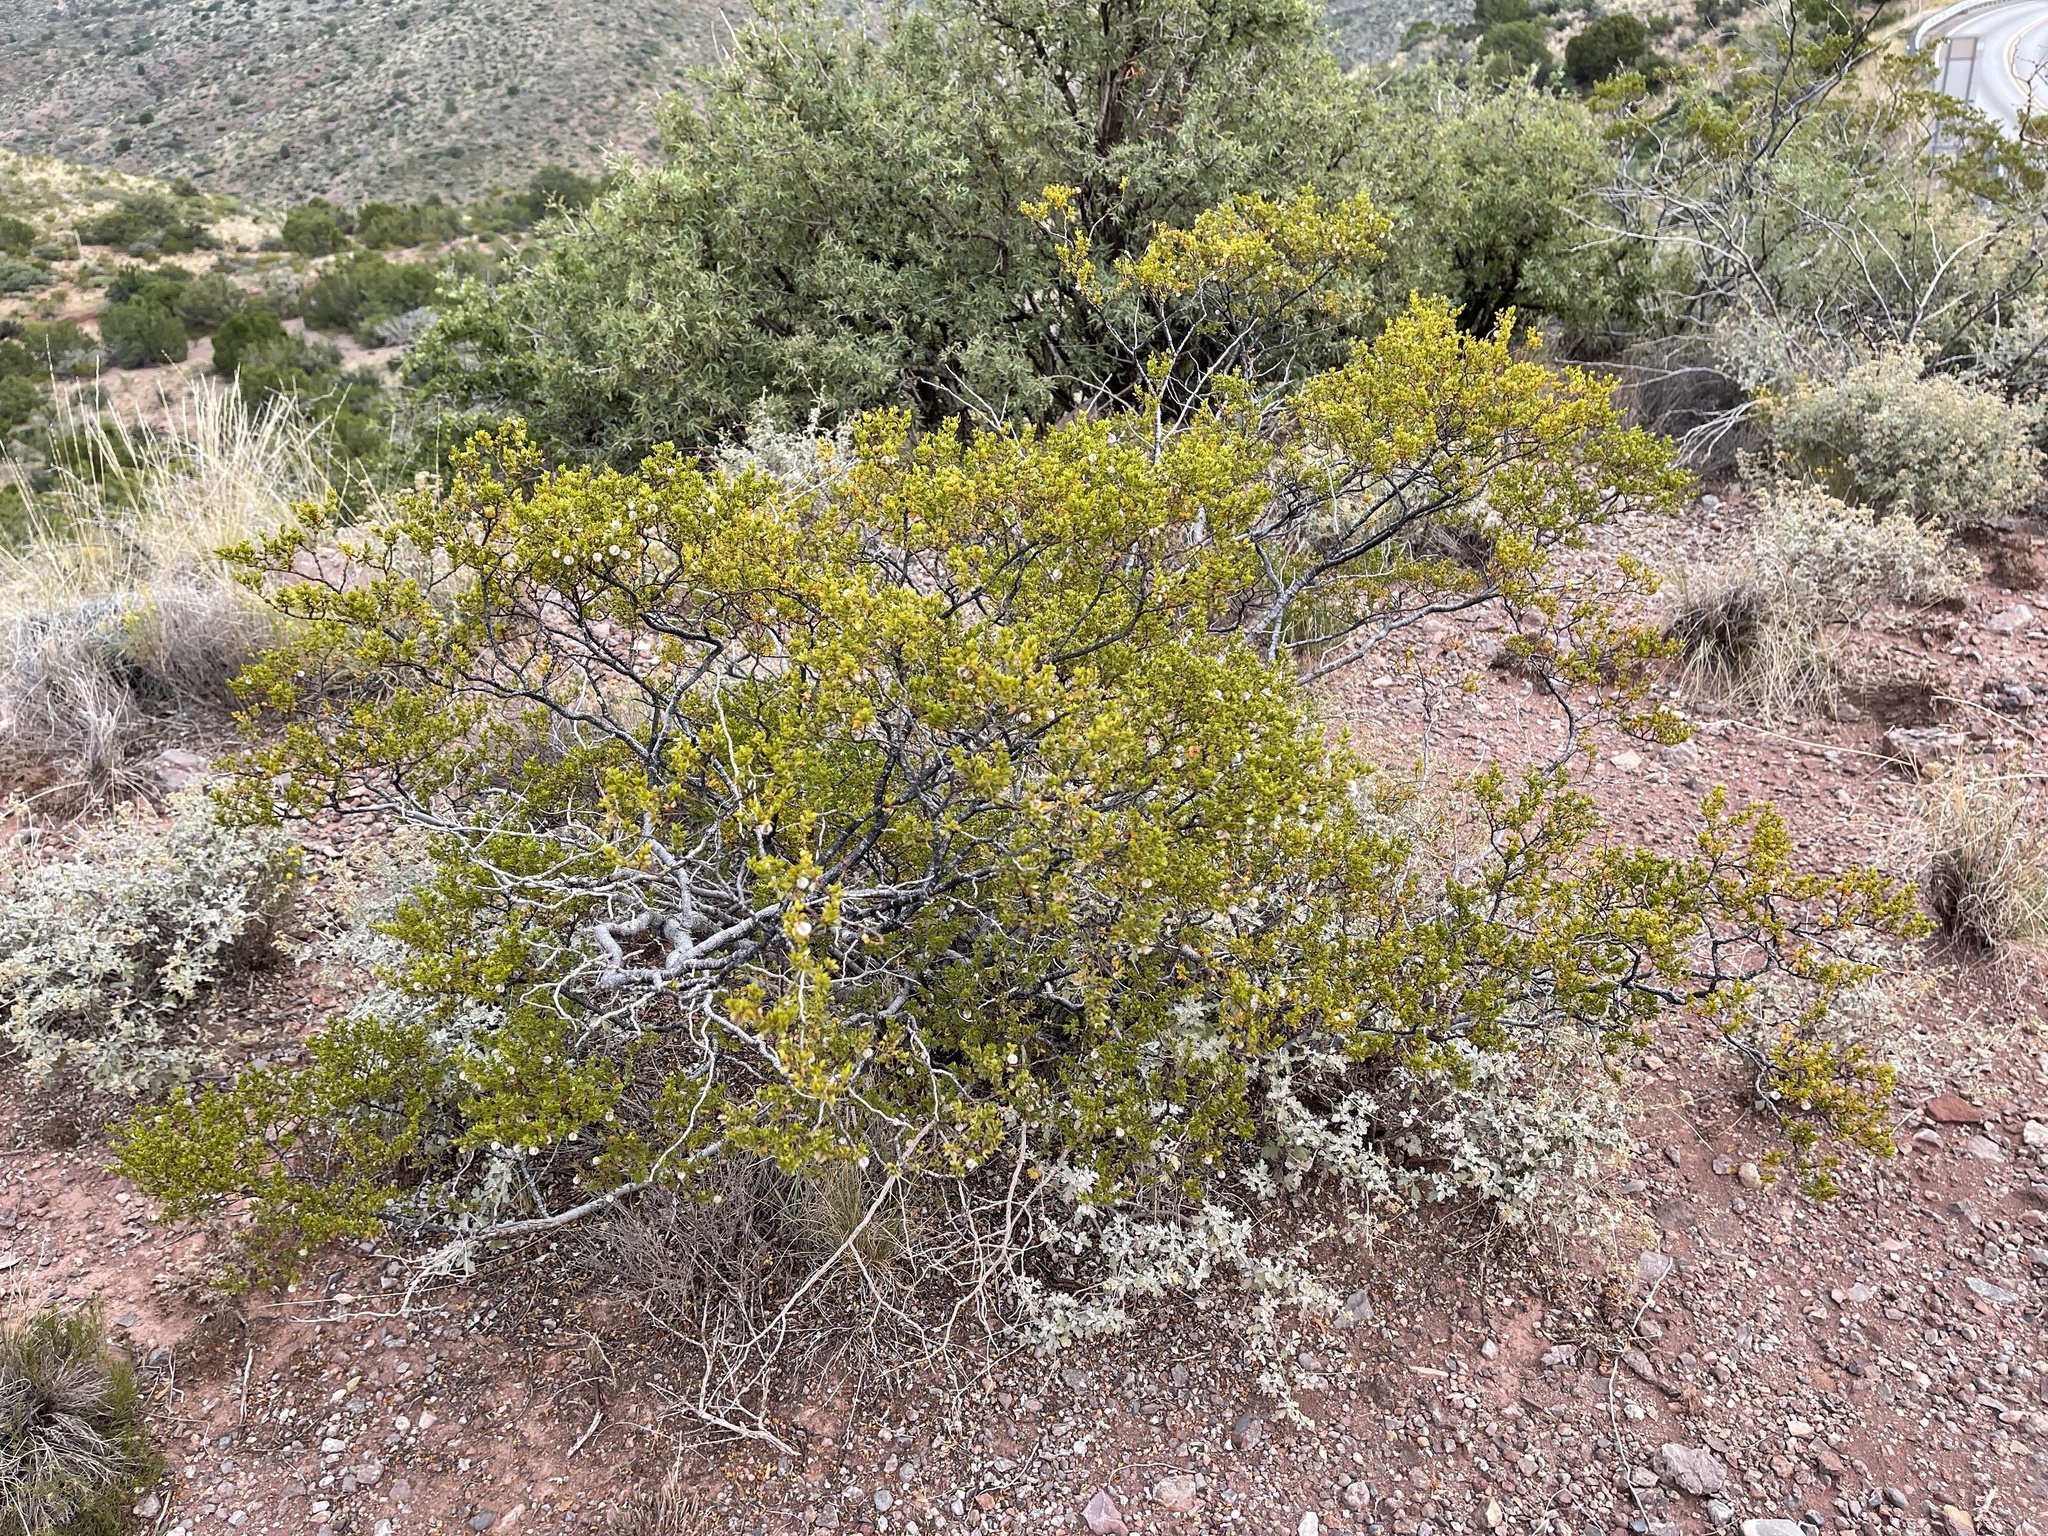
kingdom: Plantae
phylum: Tracheophyta
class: Magnoliopsida
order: Zygophyllales
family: Zygophyllaceae
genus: Larrea
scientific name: Larrea tridentata
